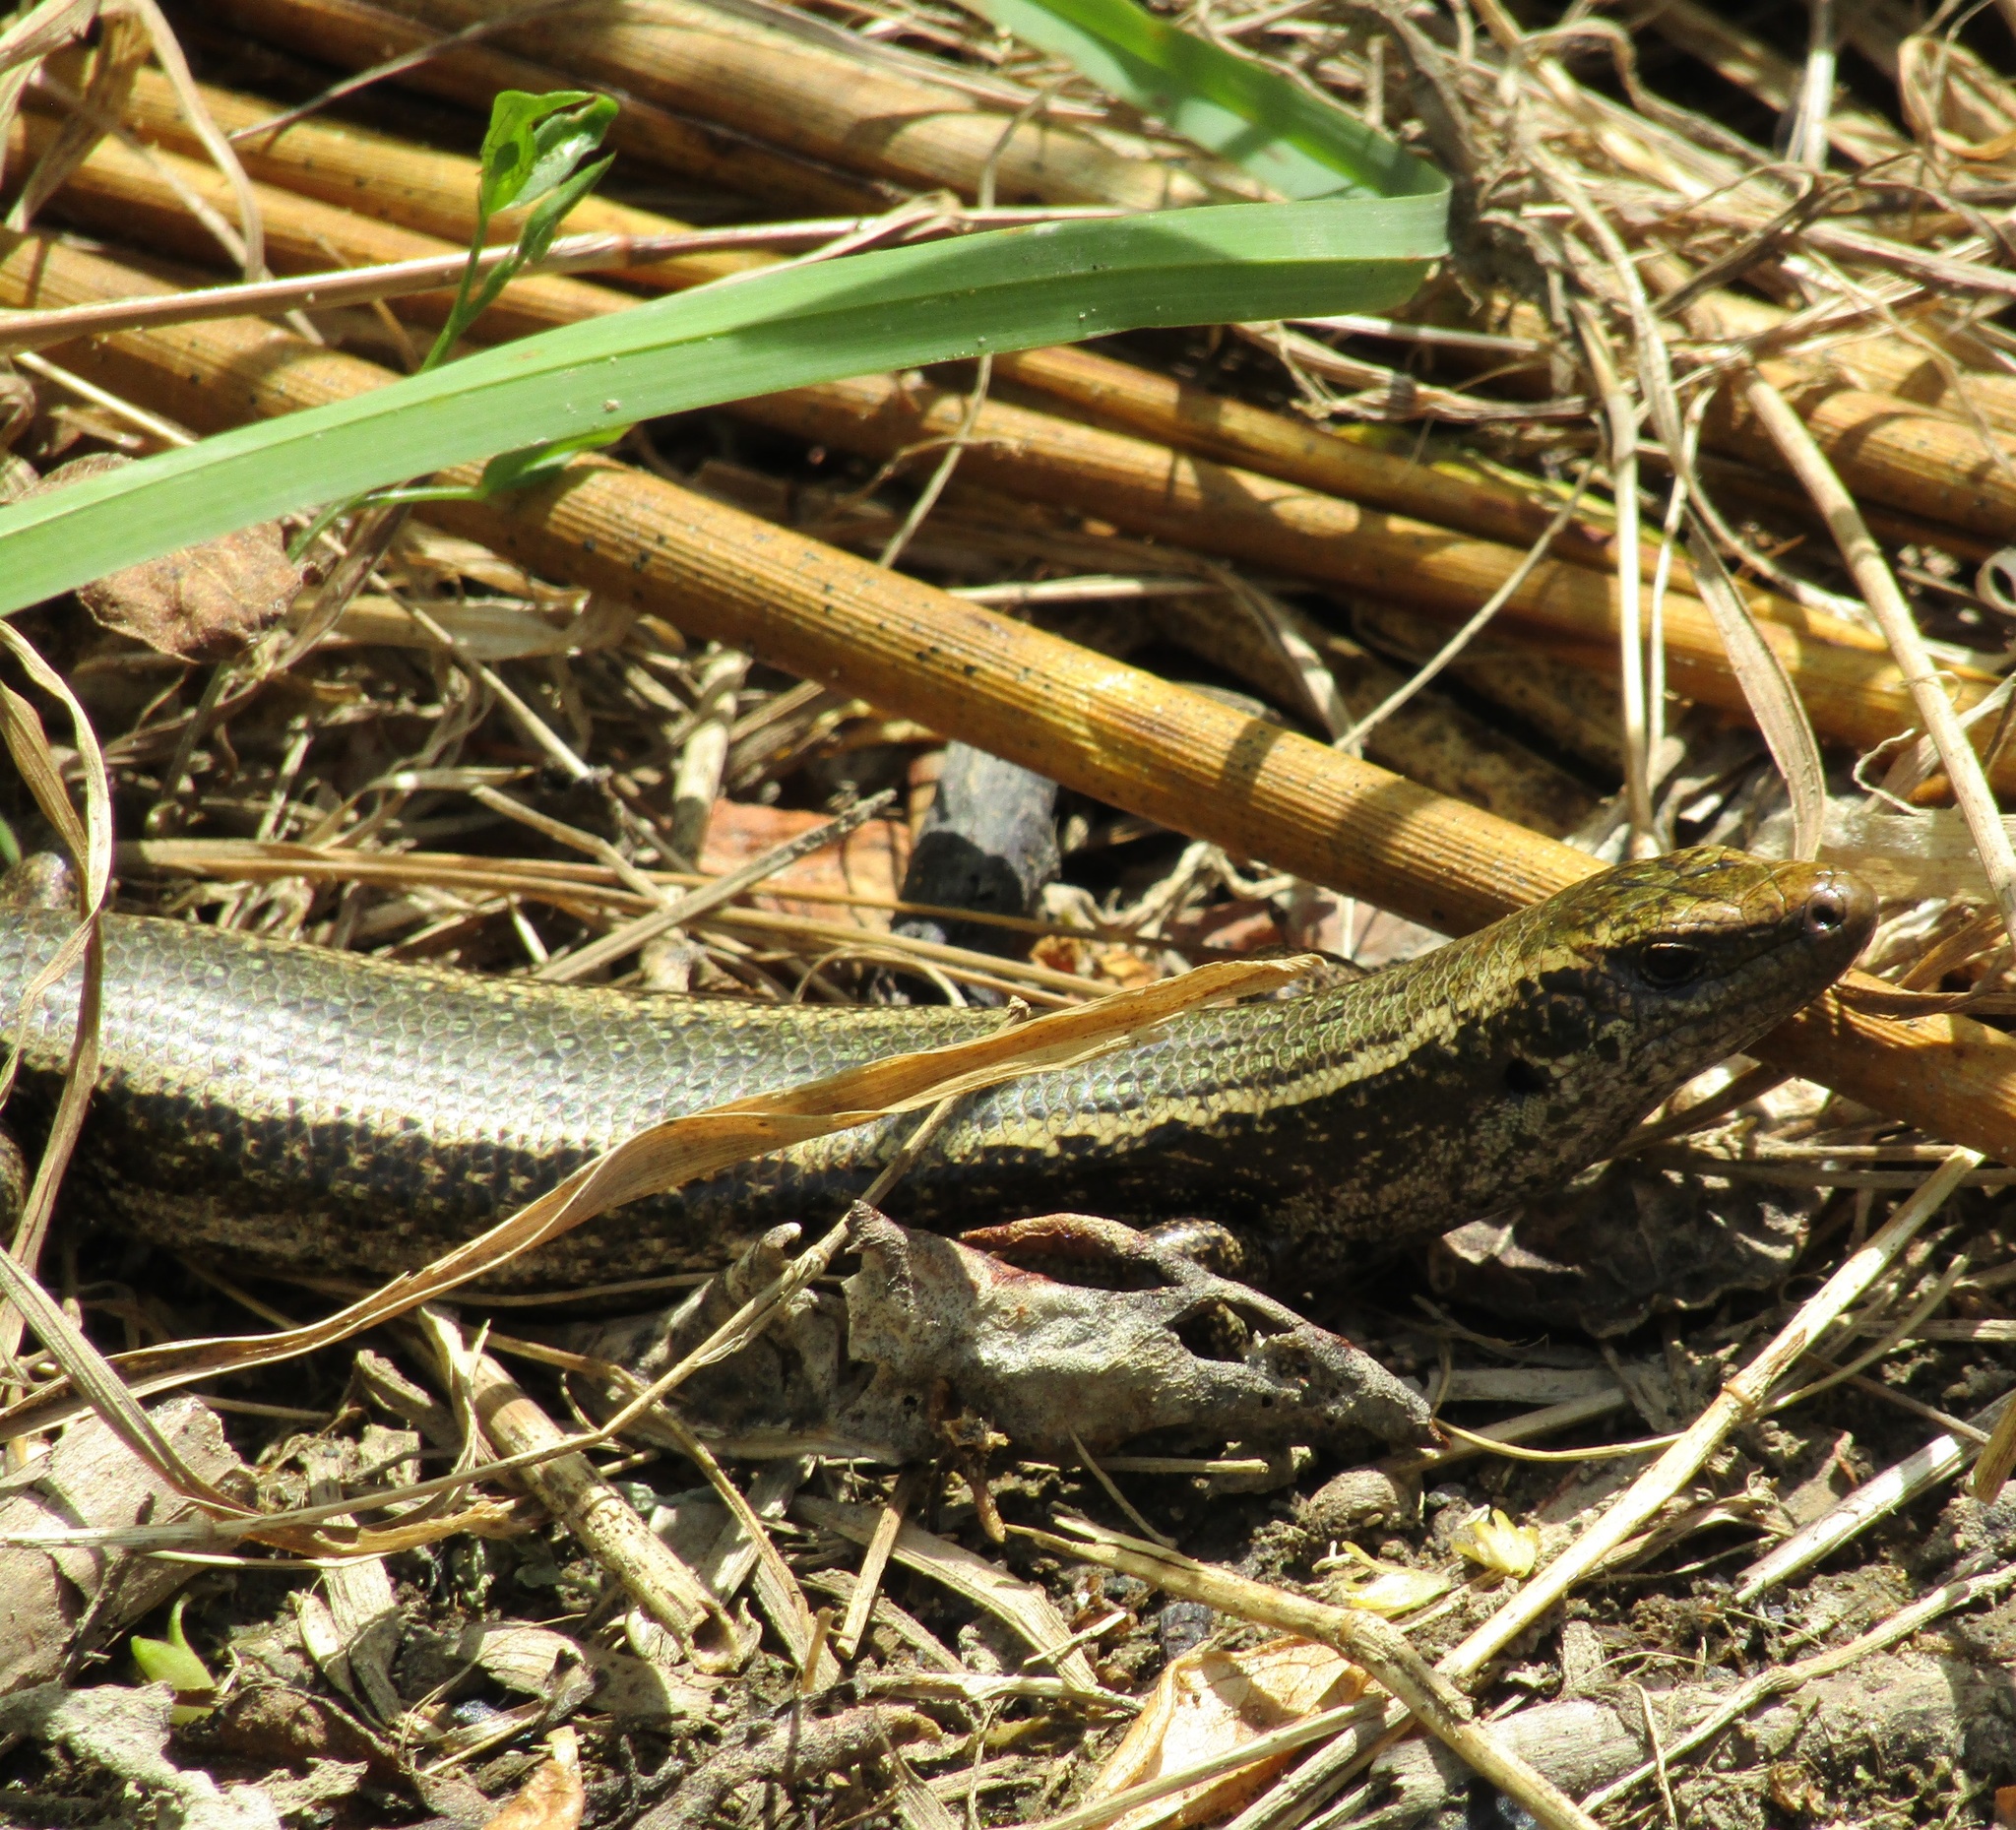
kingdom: Animalia
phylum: Chordata
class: Squamata
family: Scincidae
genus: Oligosoma
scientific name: Oligosoma kokowai
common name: Northern spotted skink
